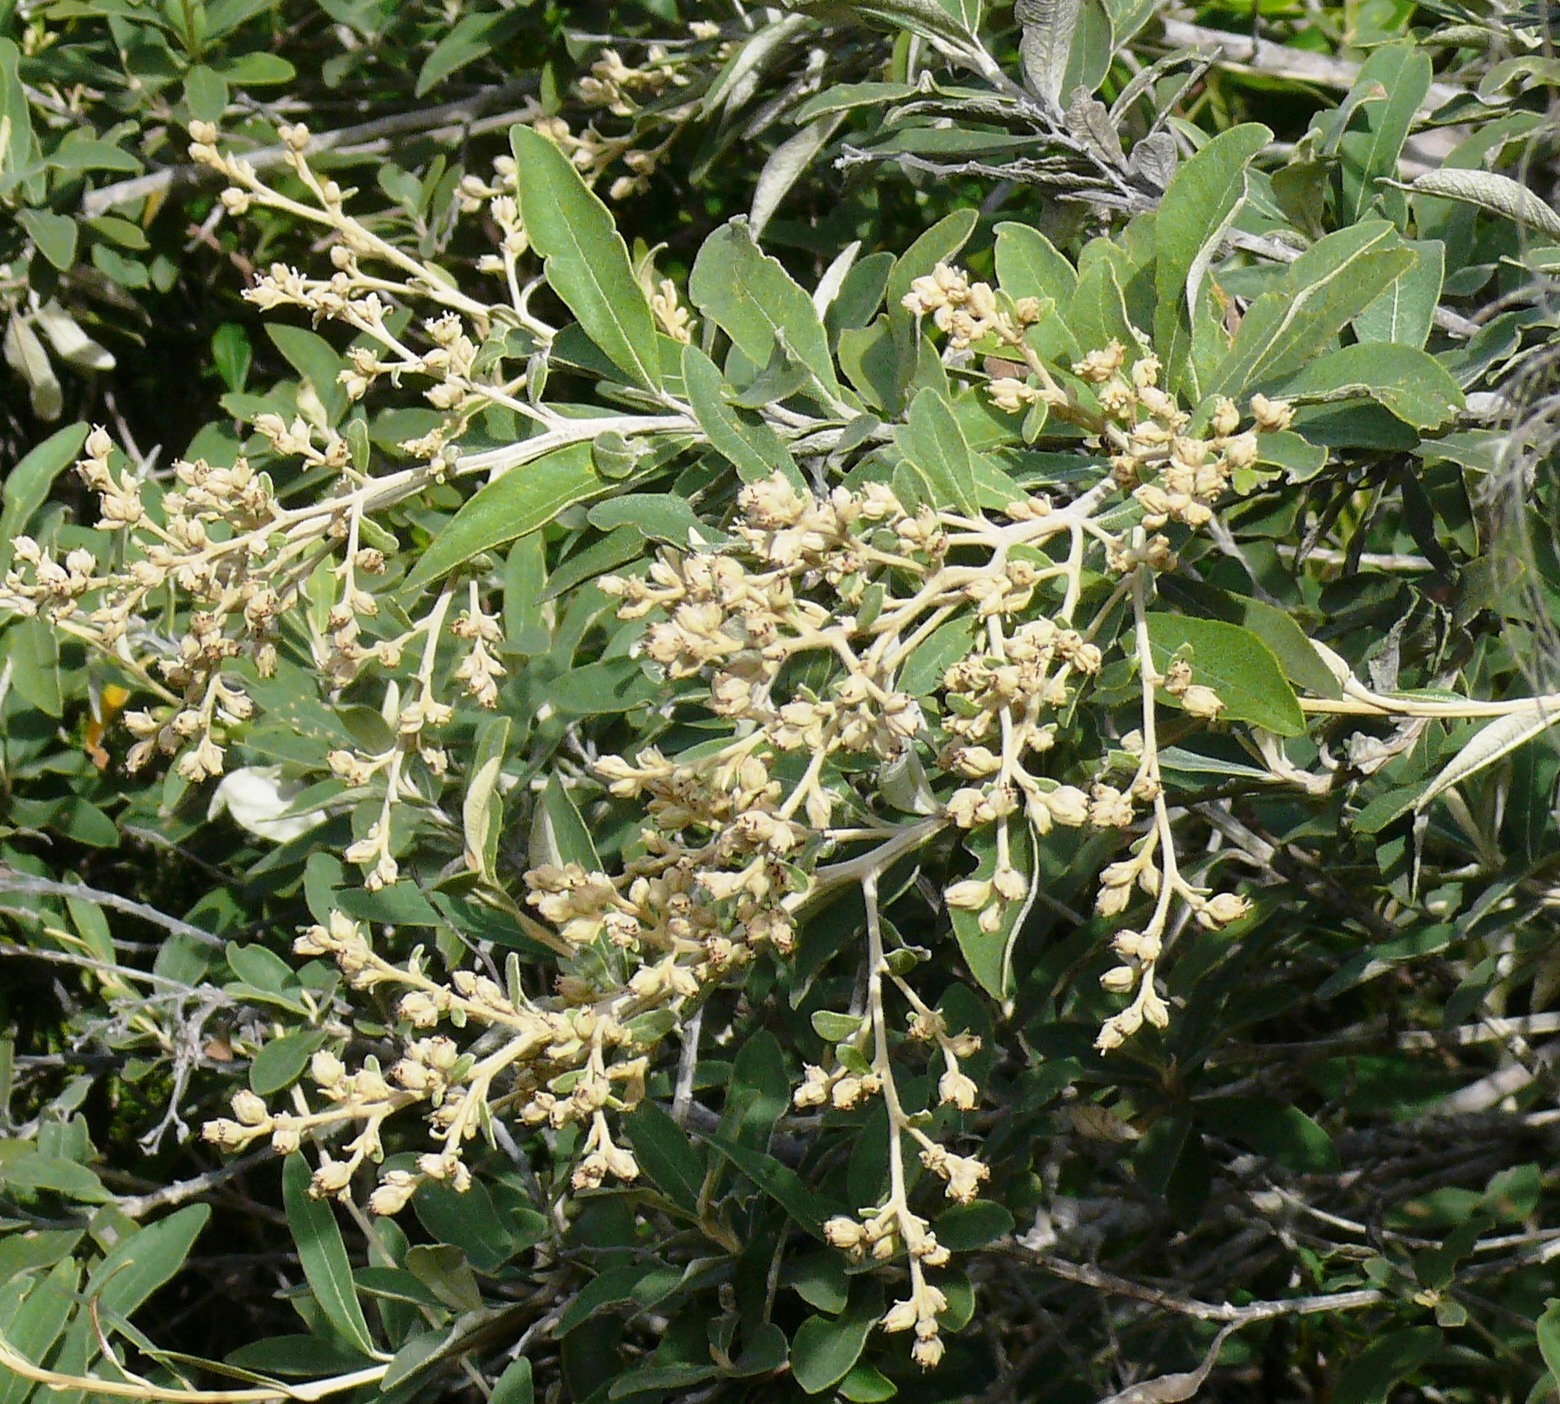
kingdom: Plantae
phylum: Tracheophyta
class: Magnoliopsida
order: Asterales
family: Asteraceae
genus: Tarchonanthus
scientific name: Tarchonanthus littoralis
